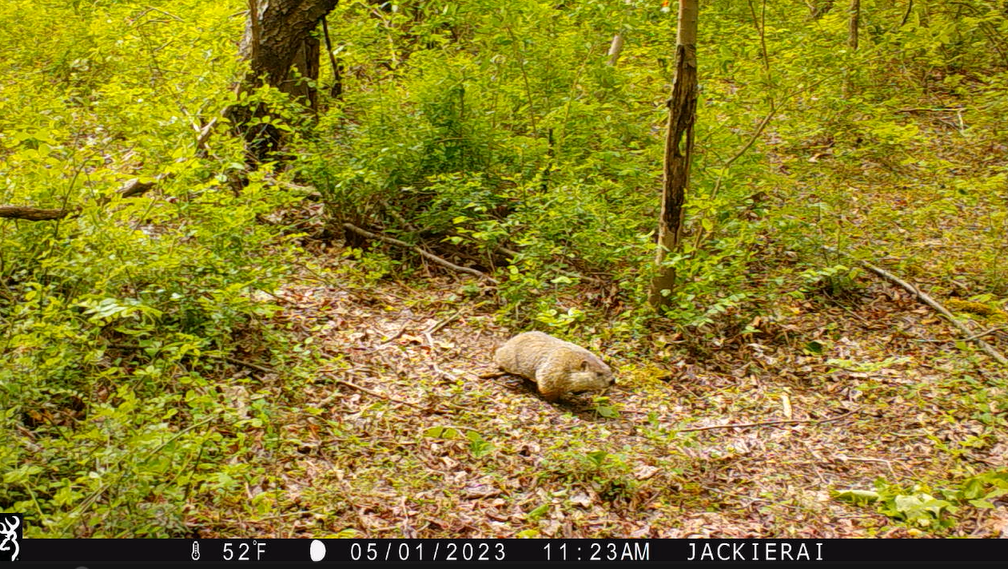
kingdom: Animalia
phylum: Chordata
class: Mammalia
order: Rodentia
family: Sciuridae
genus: Marmota
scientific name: Marmota monax
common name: Groundhog
